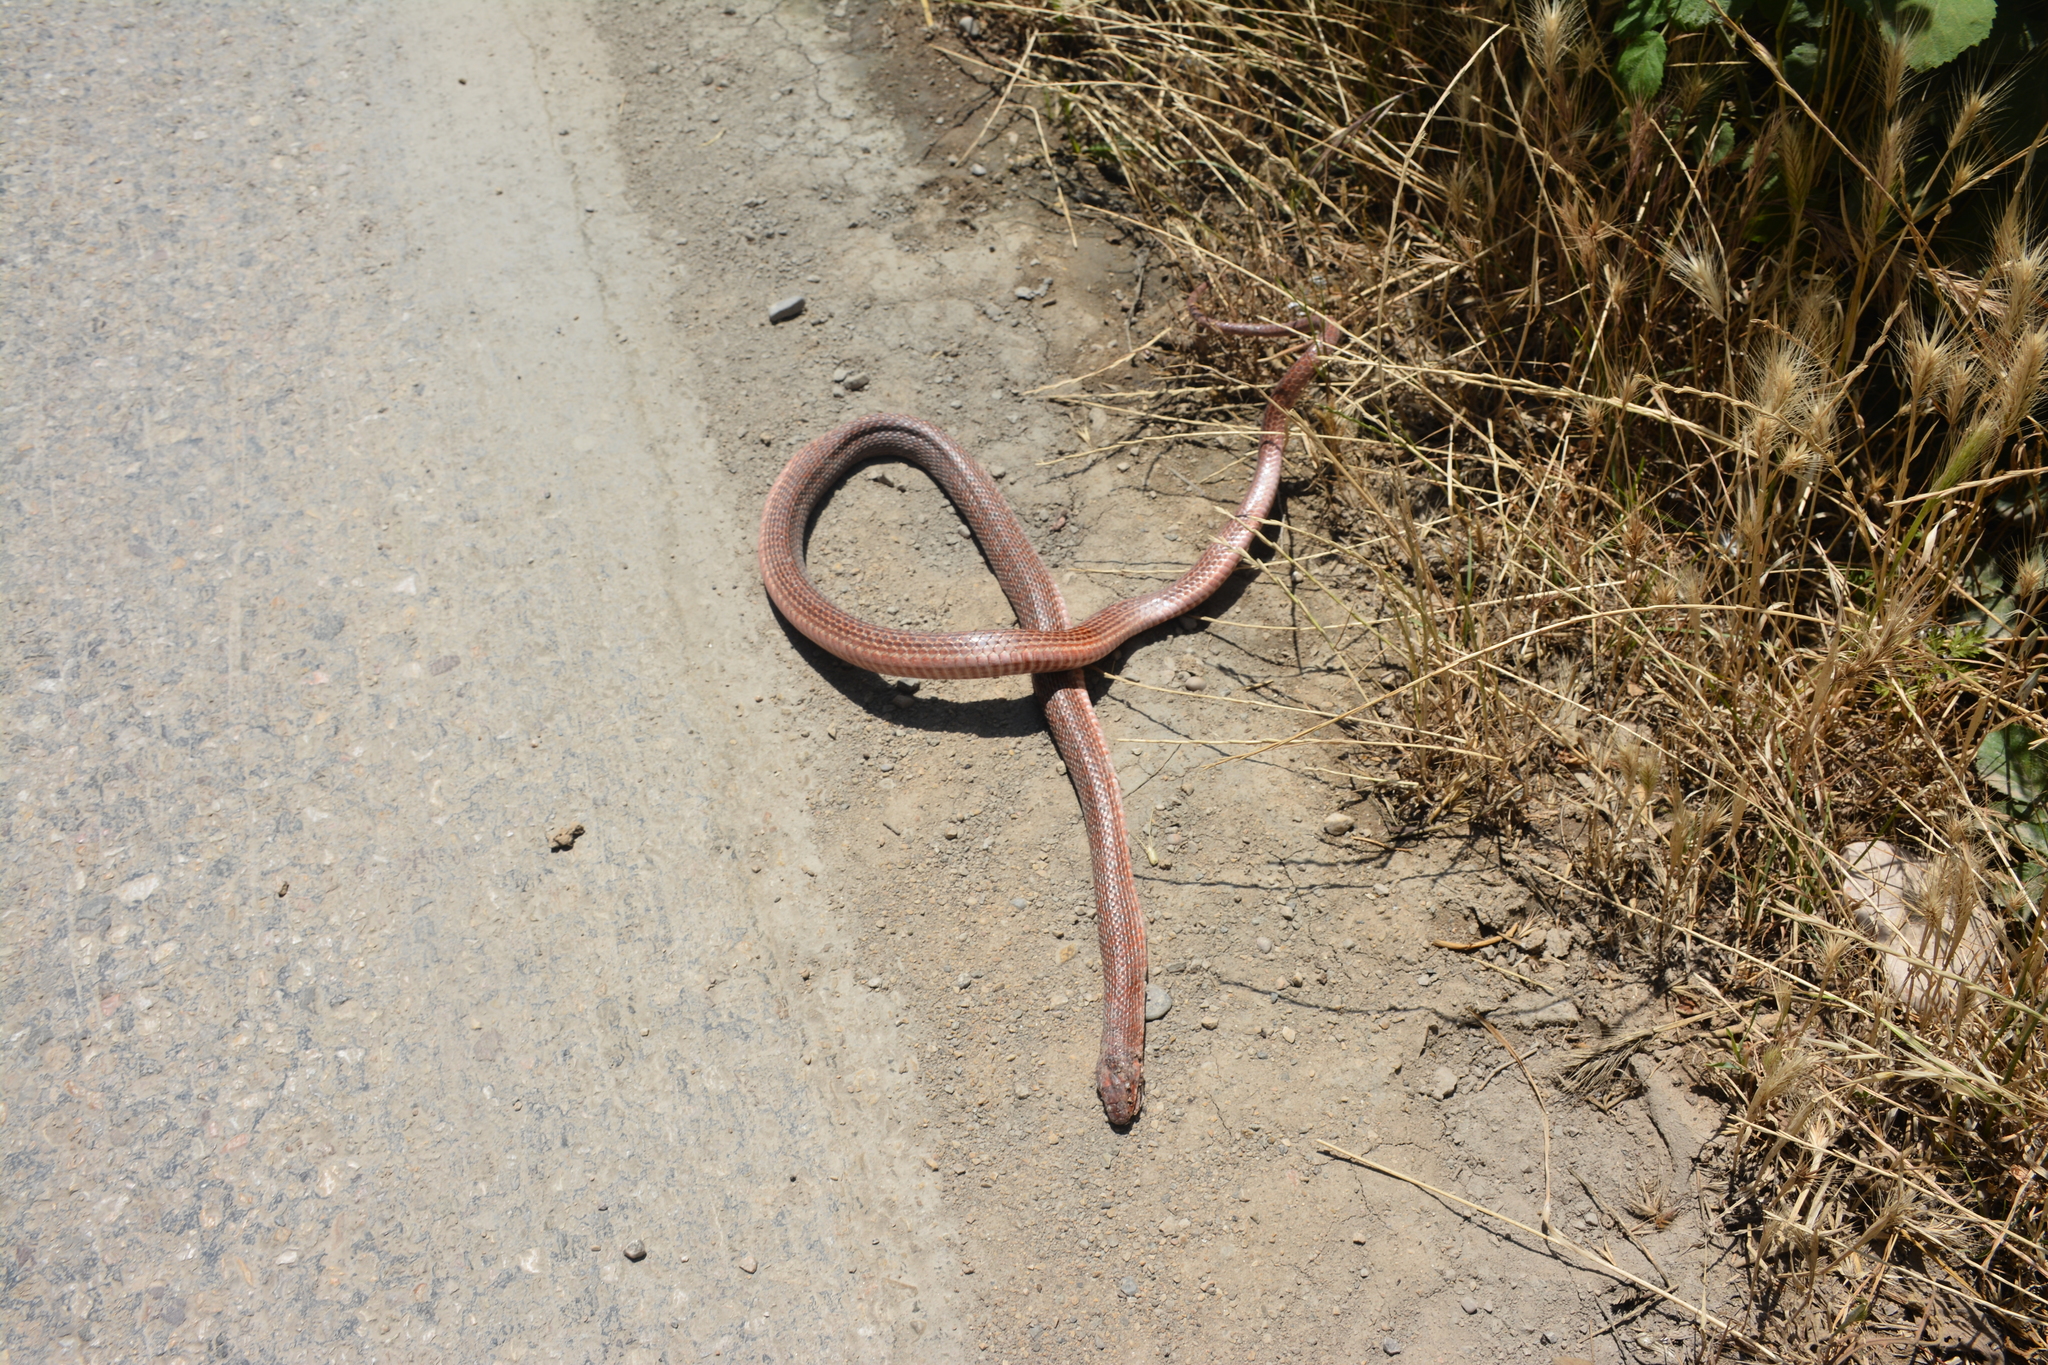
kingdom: Animalia
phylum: Chordata
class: Squamata
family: Colubridae
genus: Dolichophis
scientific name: Dolichophis schmidti
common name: Red-bellied racer
